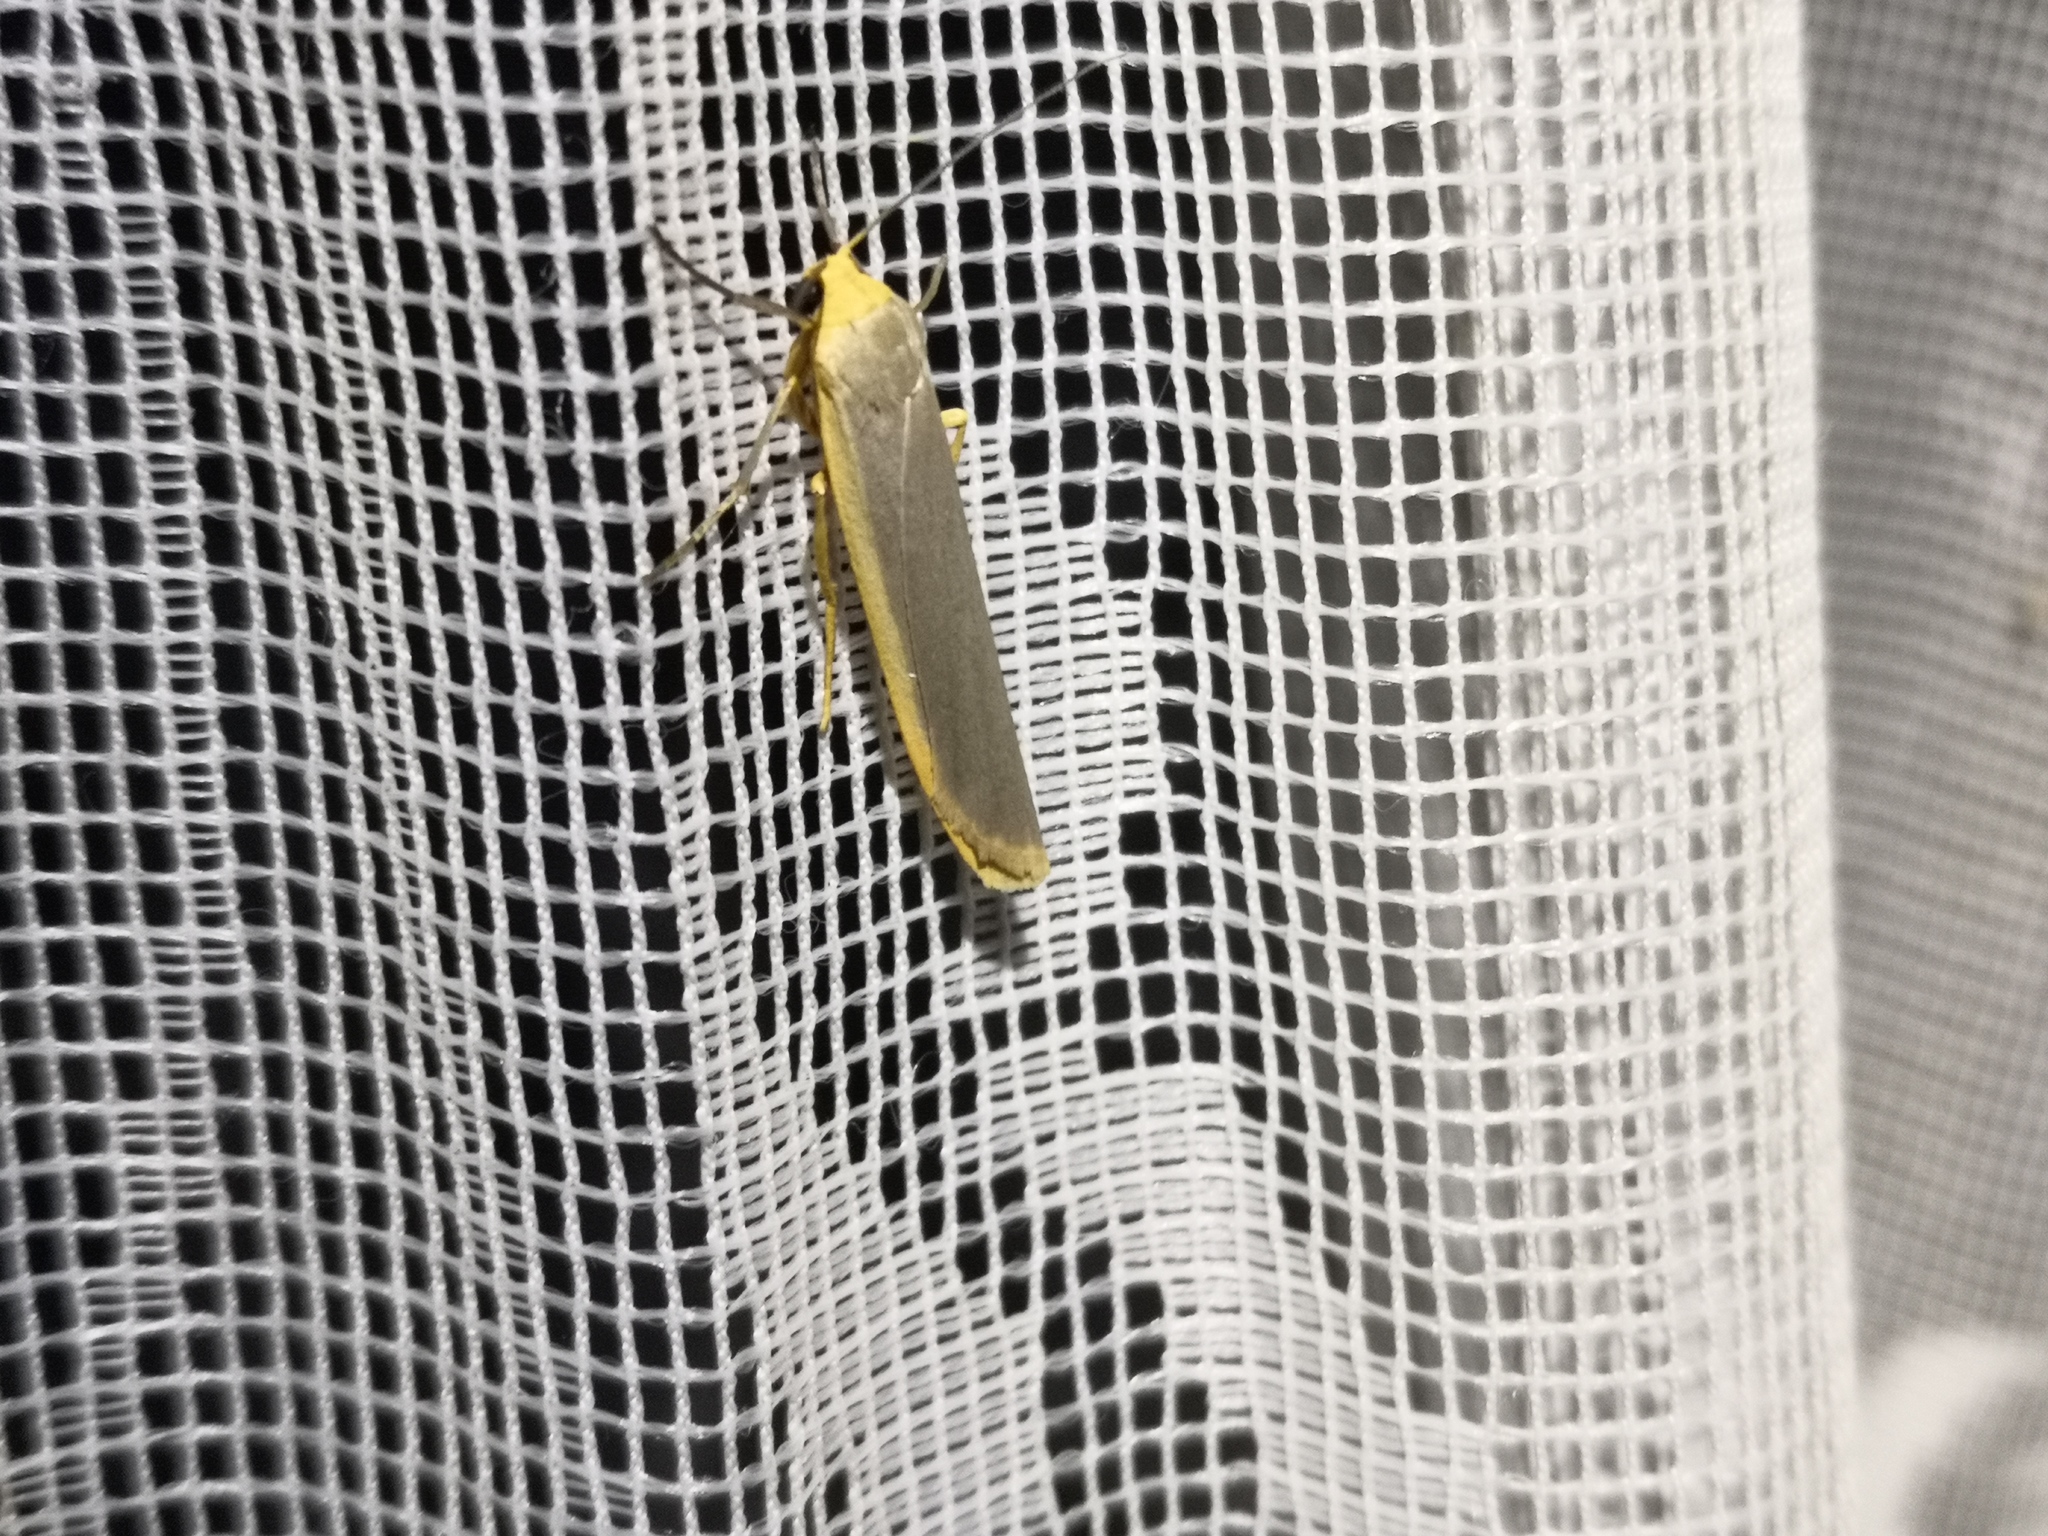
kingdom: Animalia
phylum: Arthropoda
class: Insecta
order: Lepidoptera
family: Erebidae
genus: Manulea
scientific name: Manulea complana
